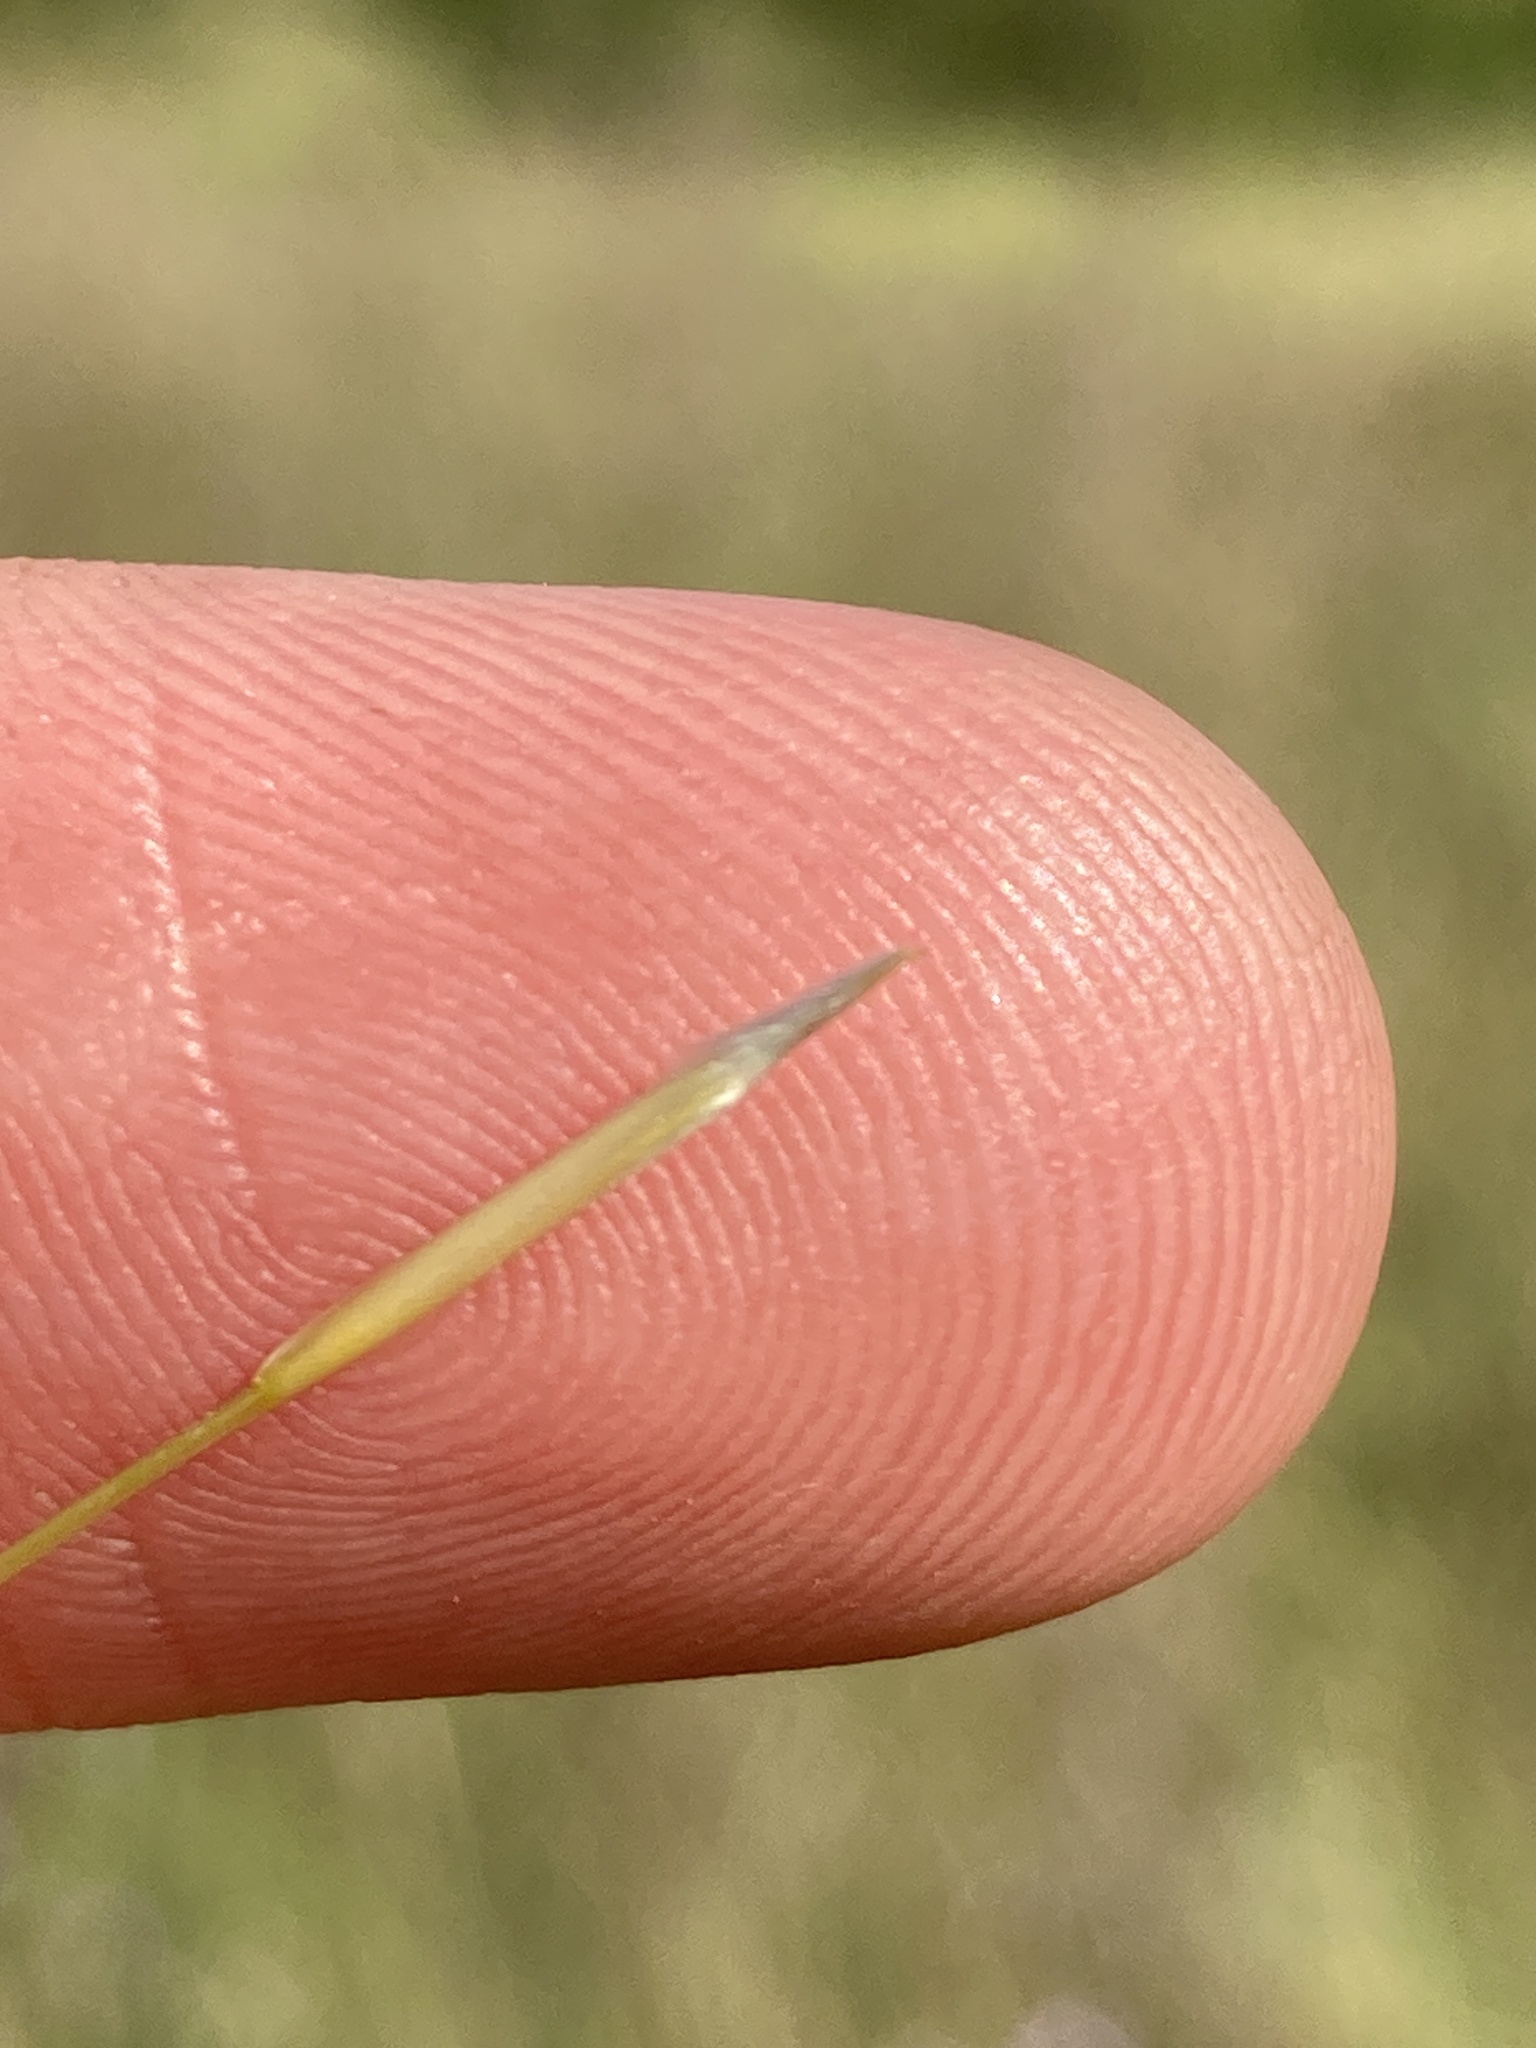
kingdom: Plantae
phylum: Tracheophyta
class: Liliopsida
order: Poales
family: Poaceae
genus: Stipa
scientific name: Stipa capillata
